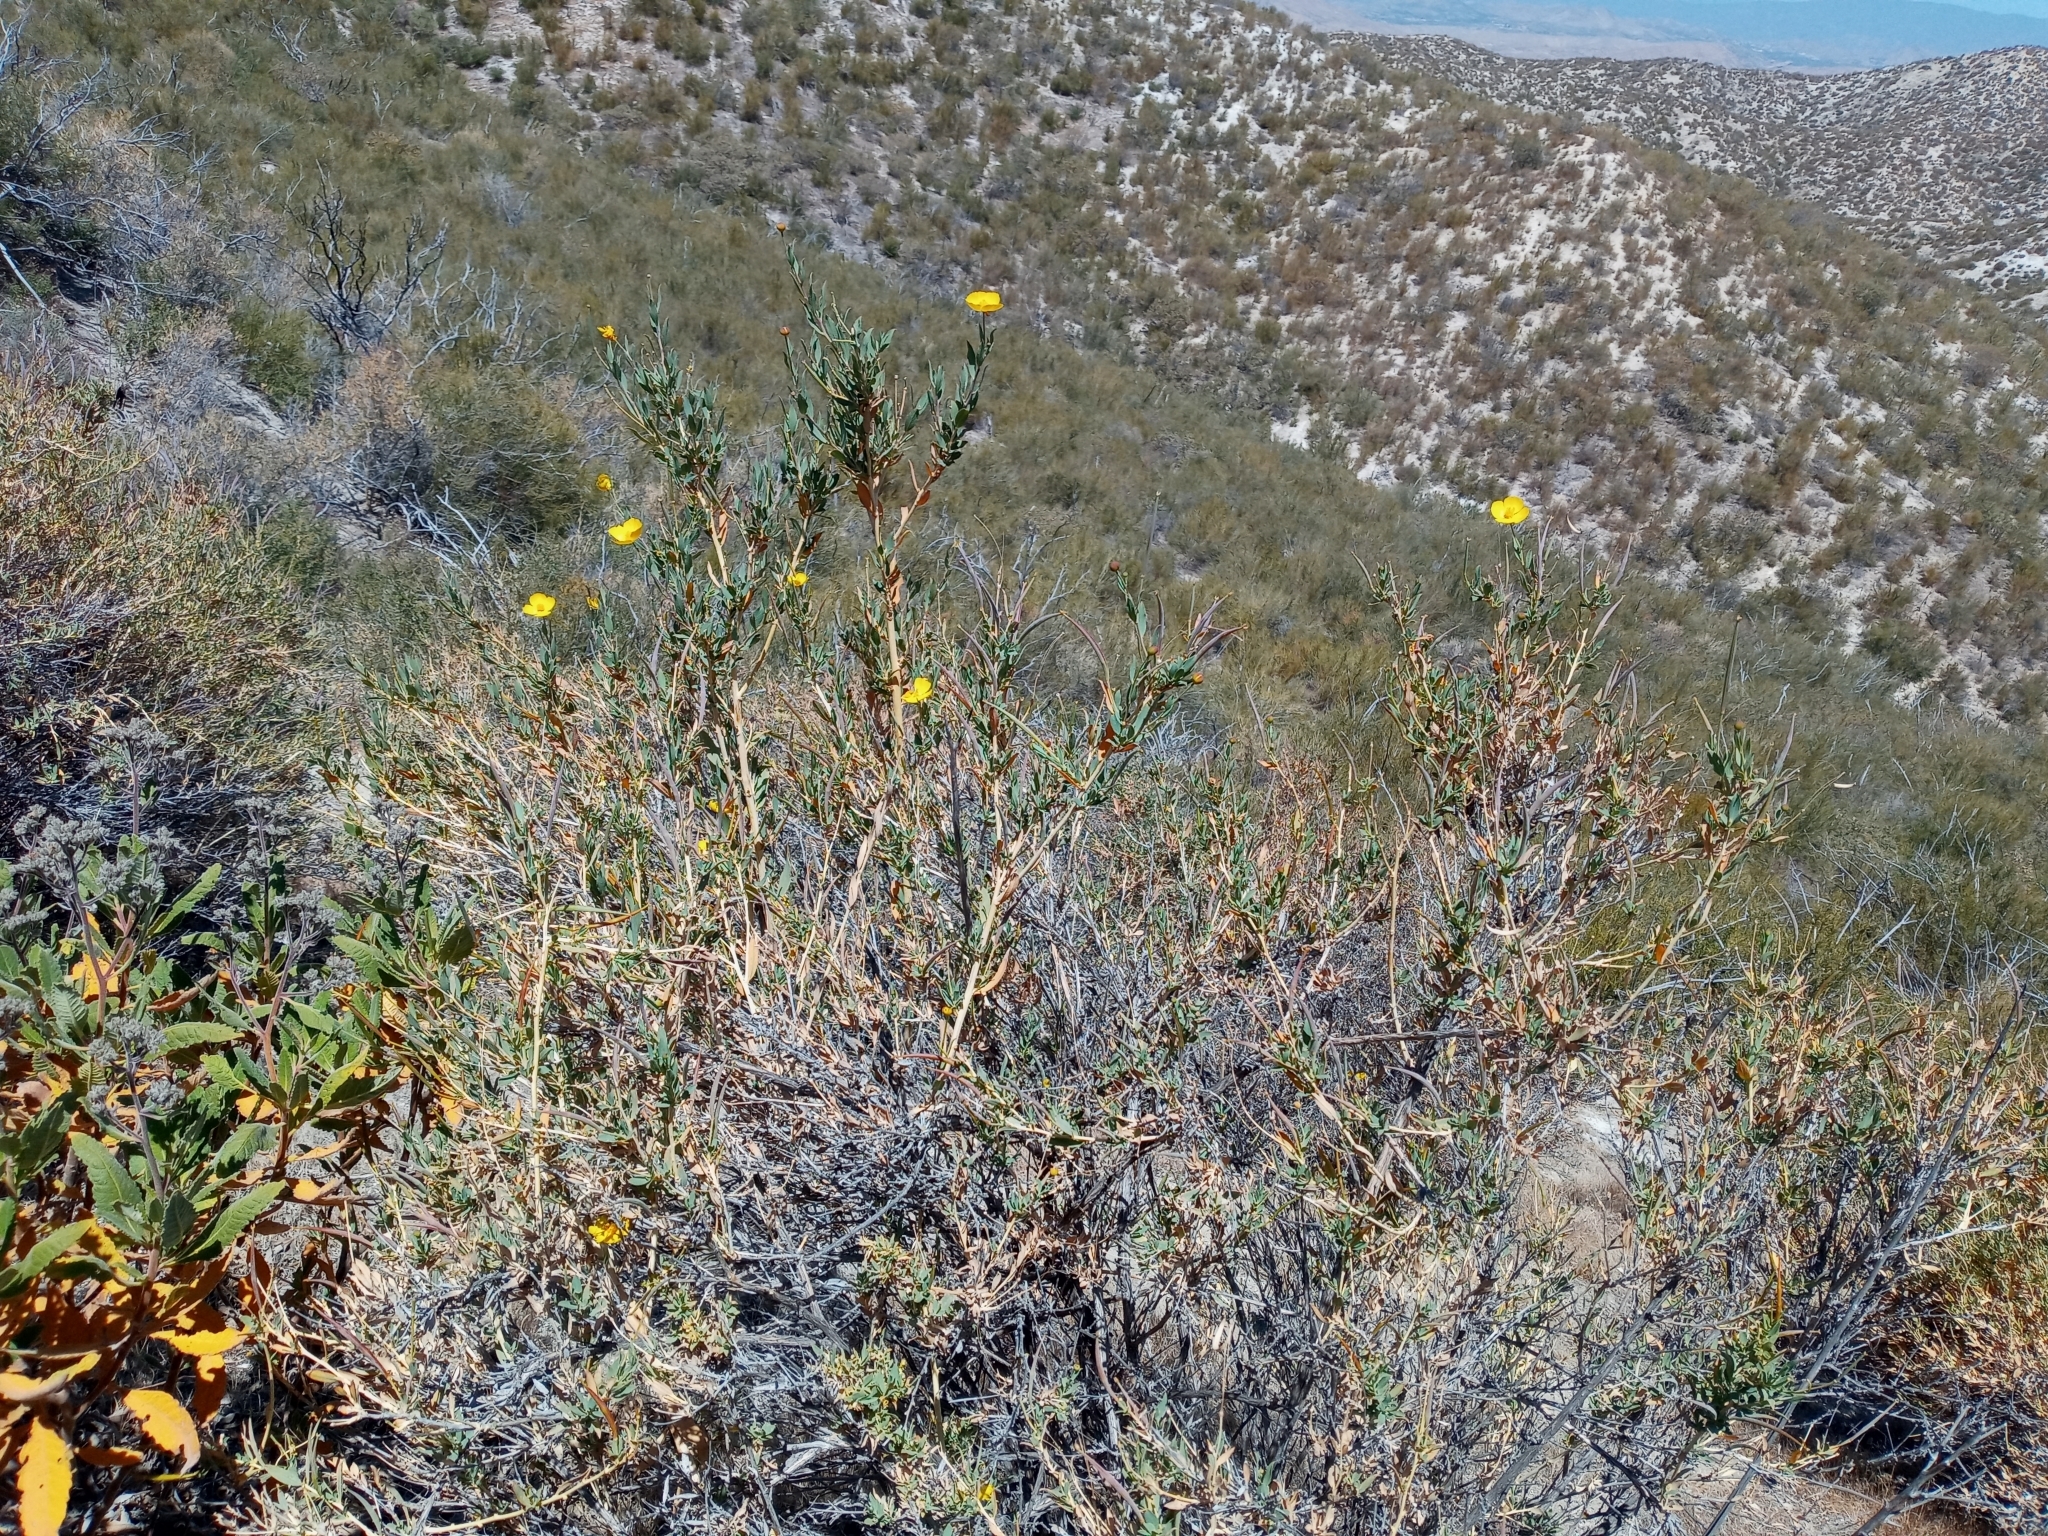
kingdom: Plantae
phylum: Tracheophyta
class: Magnoliopsida
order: Ranunculales
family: Papaveraceae
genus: Dendromecon
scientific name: Dendromecon rigida
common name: Tree poppy
